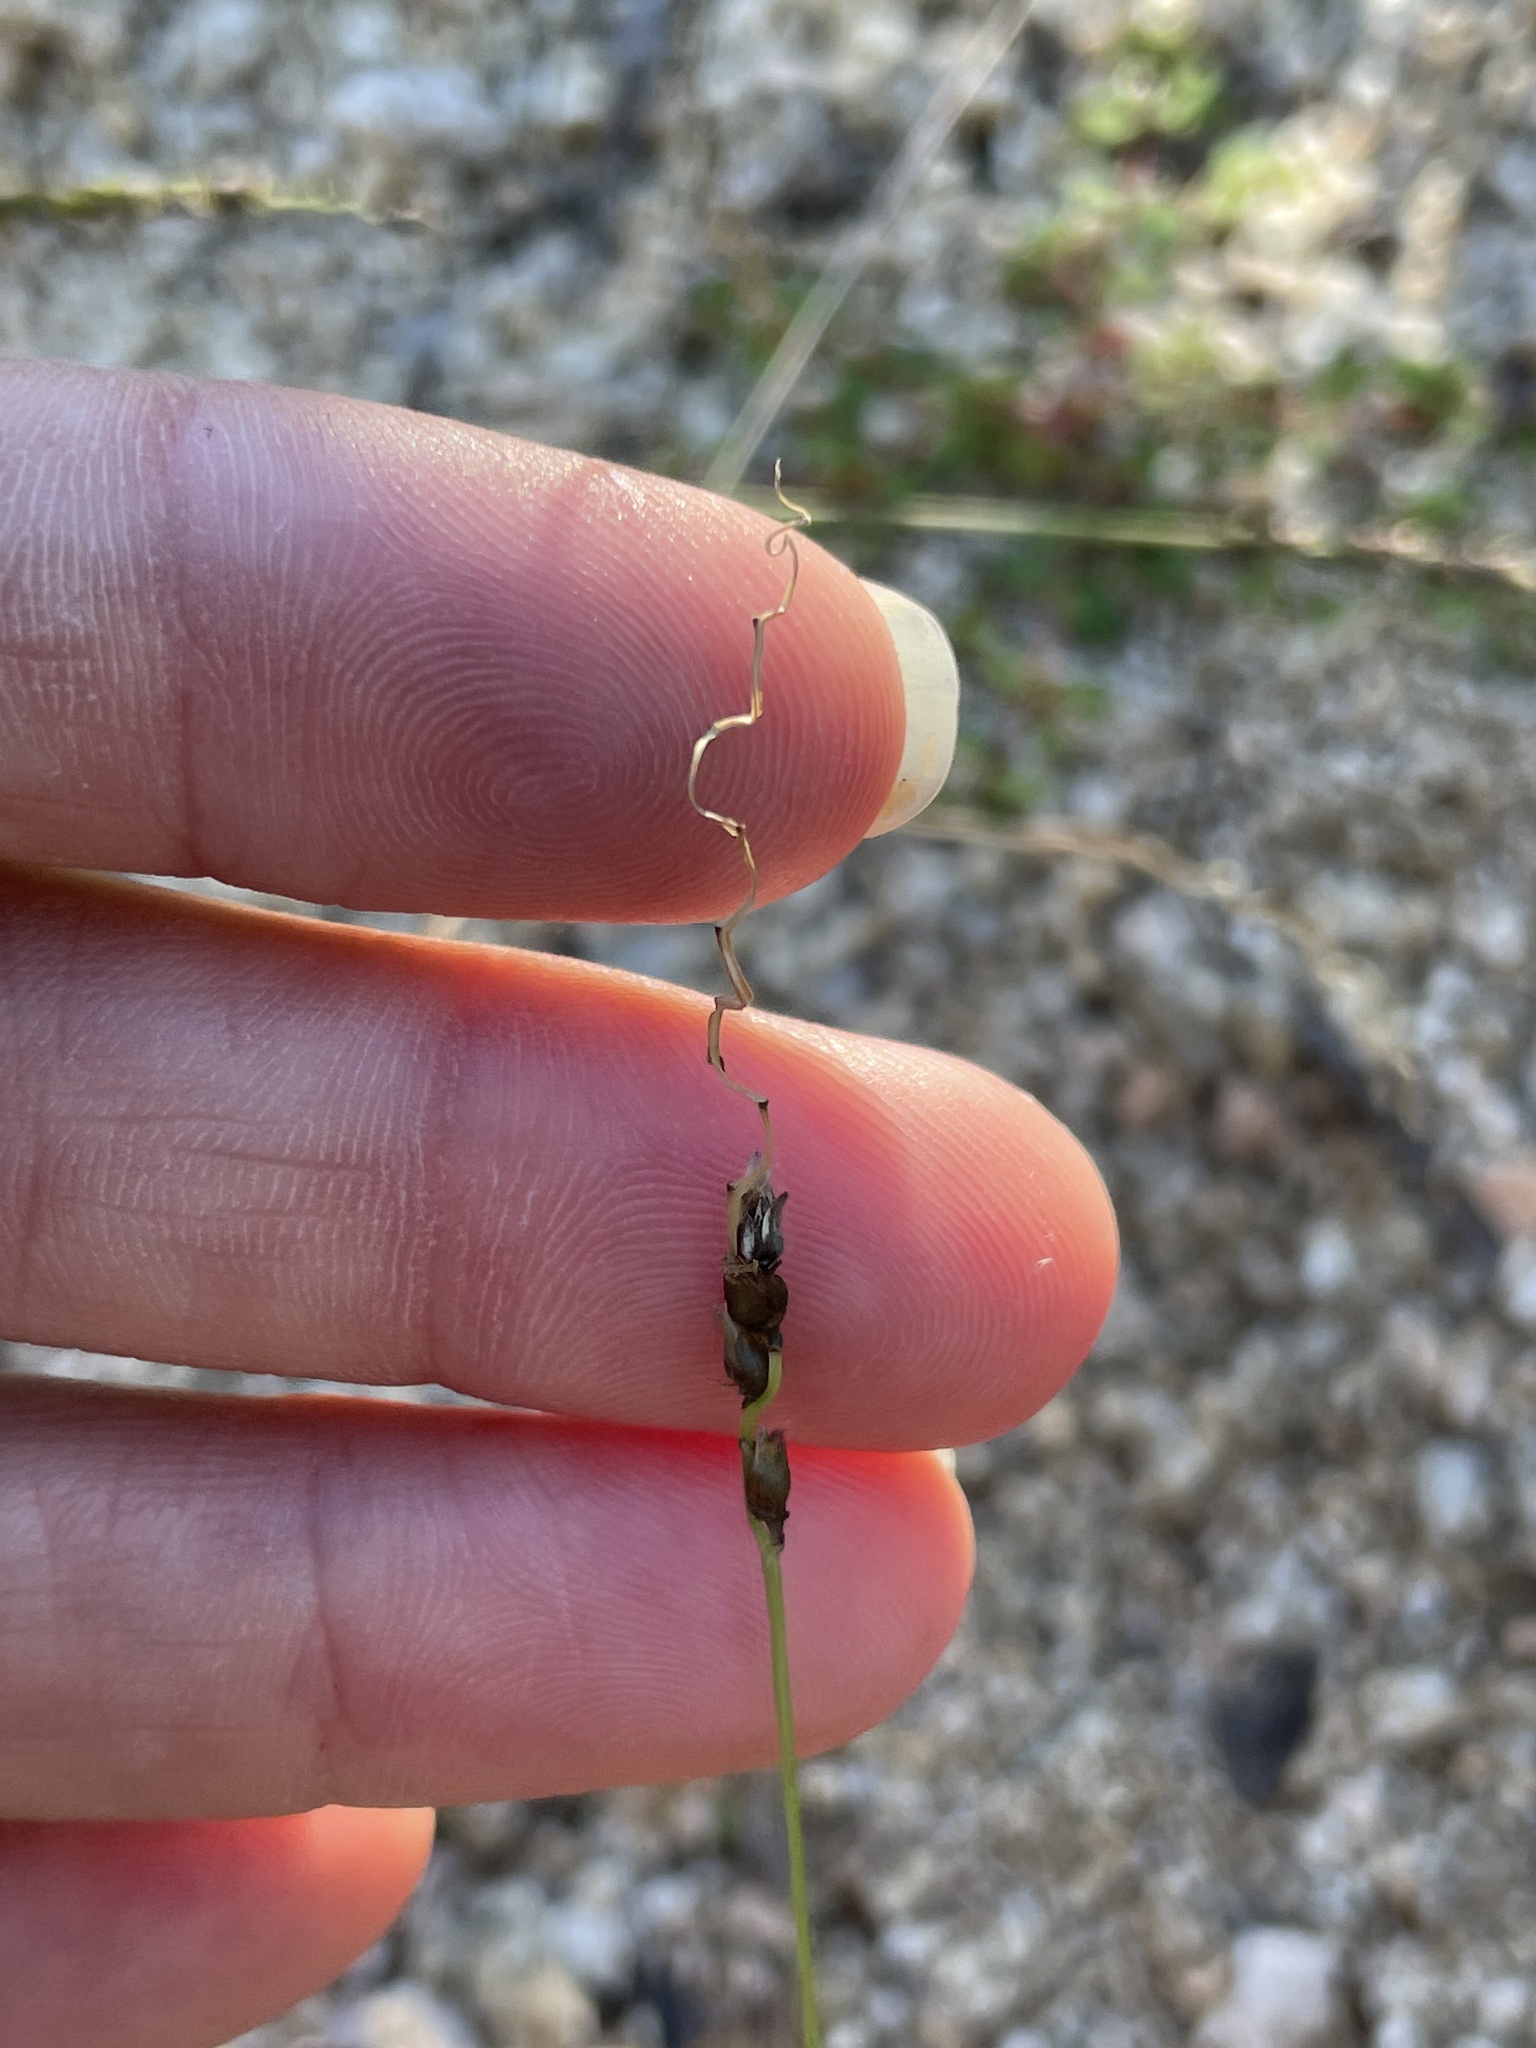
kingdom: Plantae
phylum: Tracheophyta
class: Liliopsida
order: Poales
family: Poaceae
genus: Anthephora
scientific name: Anthephora hermaphrodita
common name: Oldfield grass
